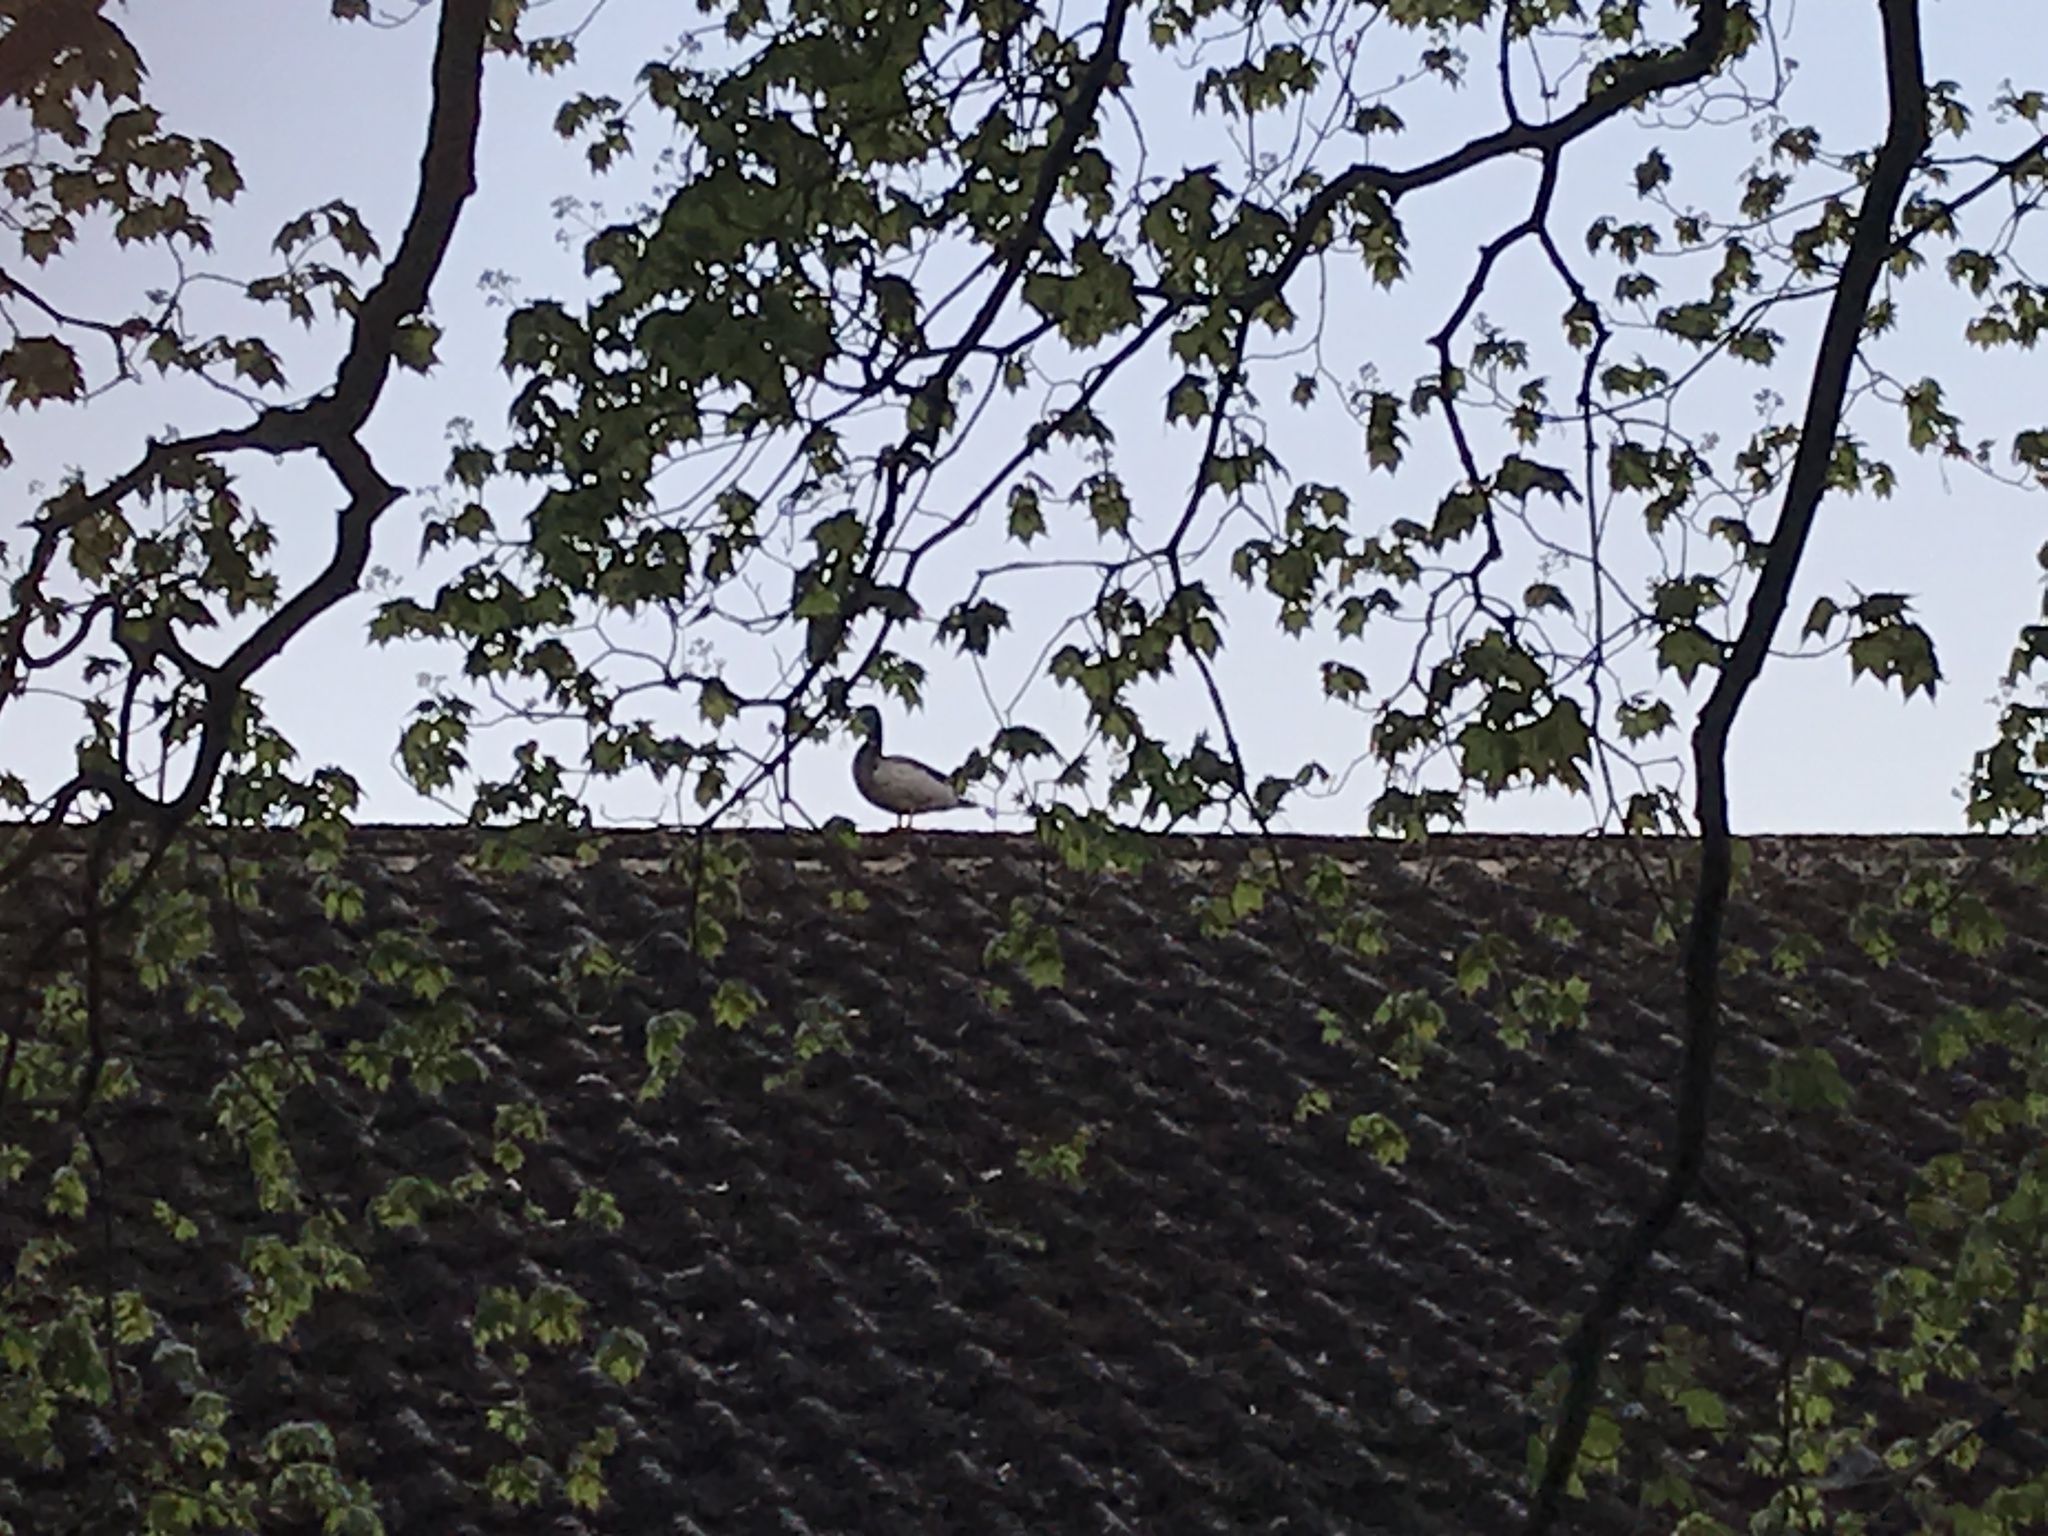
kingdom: Animalia
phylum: Chordata
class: Aves
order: Anseriformes
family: Anatidae
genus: Anas
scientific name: Anas platyrhynchos
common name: Mallard
